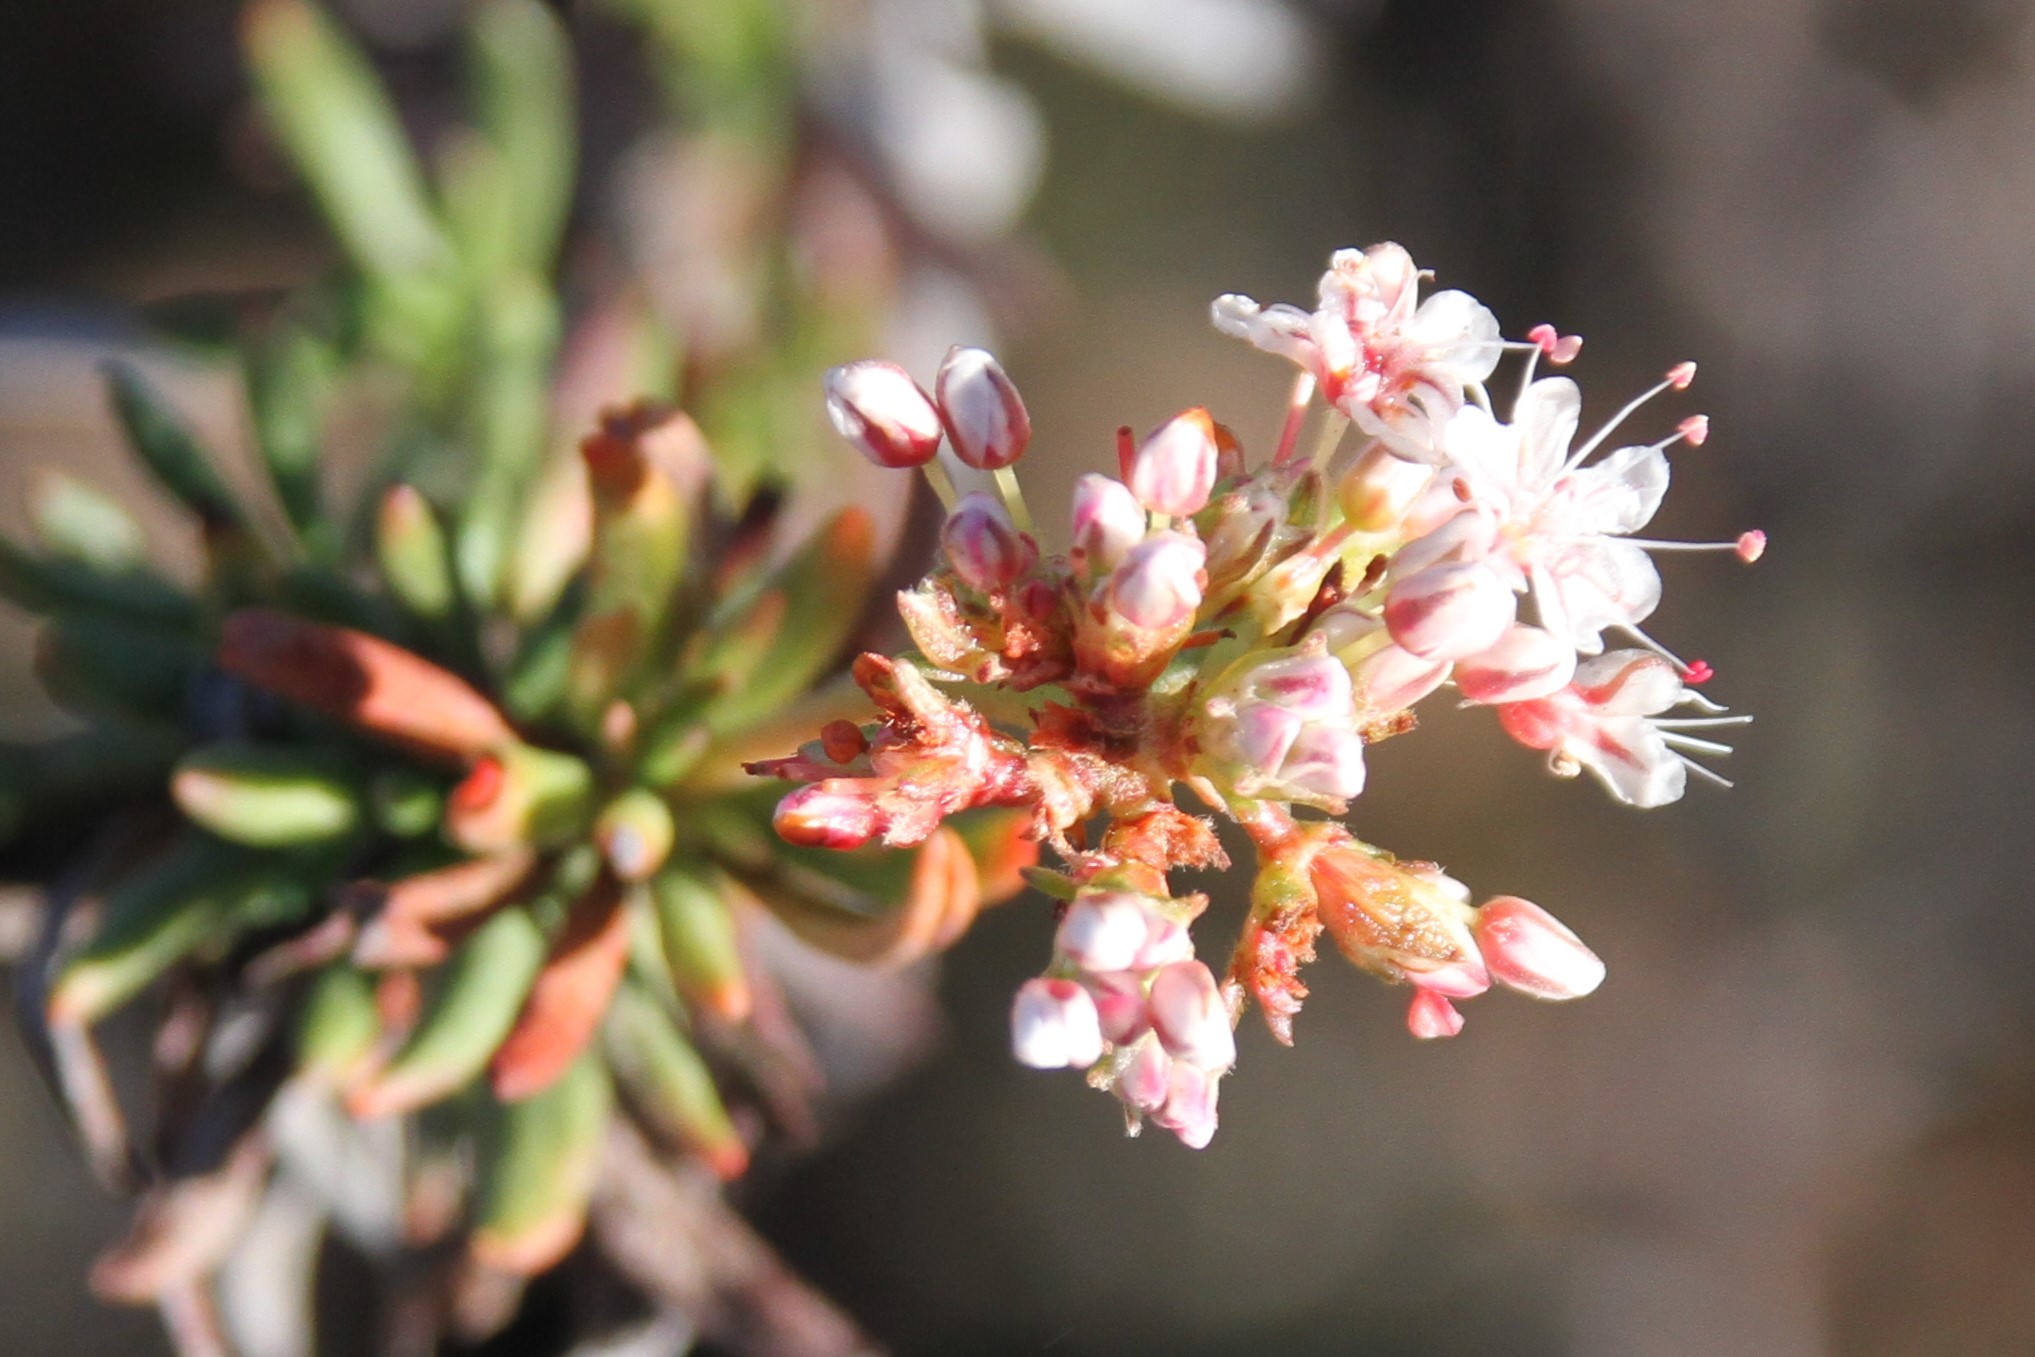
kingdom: Plantae
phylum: Tracheophyta
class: Magnoliopsida
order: Caryophyllales
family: Polygonaceae
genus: Eriogonum
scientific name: Eriogonum fasciculatum
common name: California wild buckwheat
